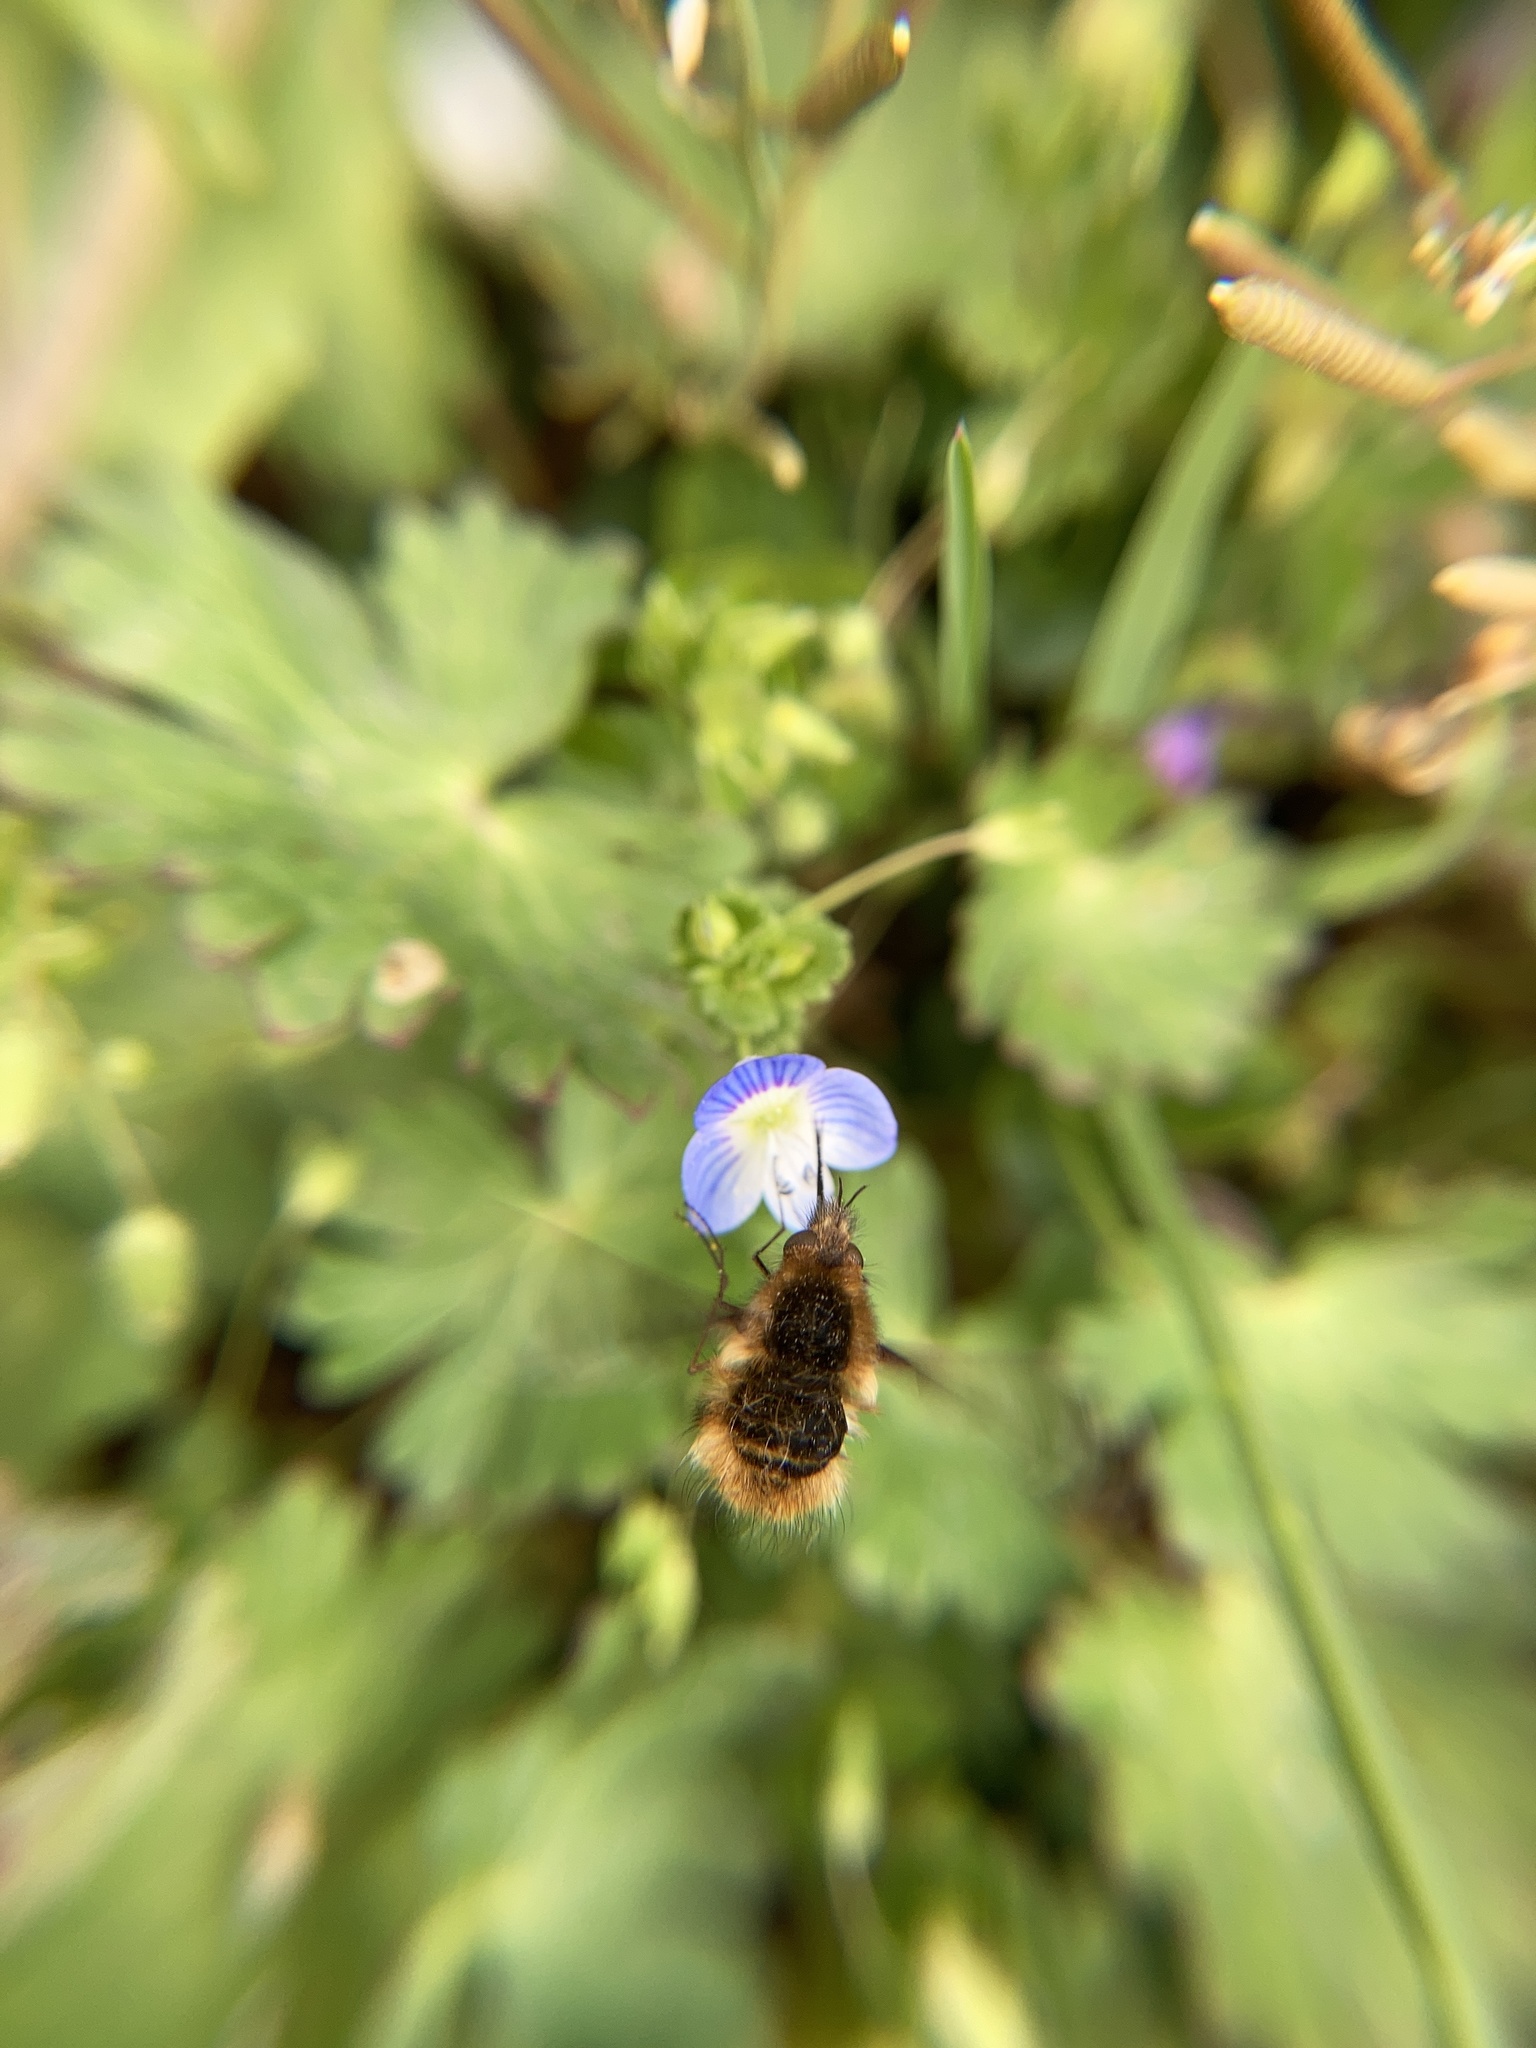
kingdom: Animalia
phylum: Arthropoda
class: Insecta
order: Diptera
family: Bombyliidae
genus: Bombylius
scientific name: Bombylius major
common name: Bee fly
